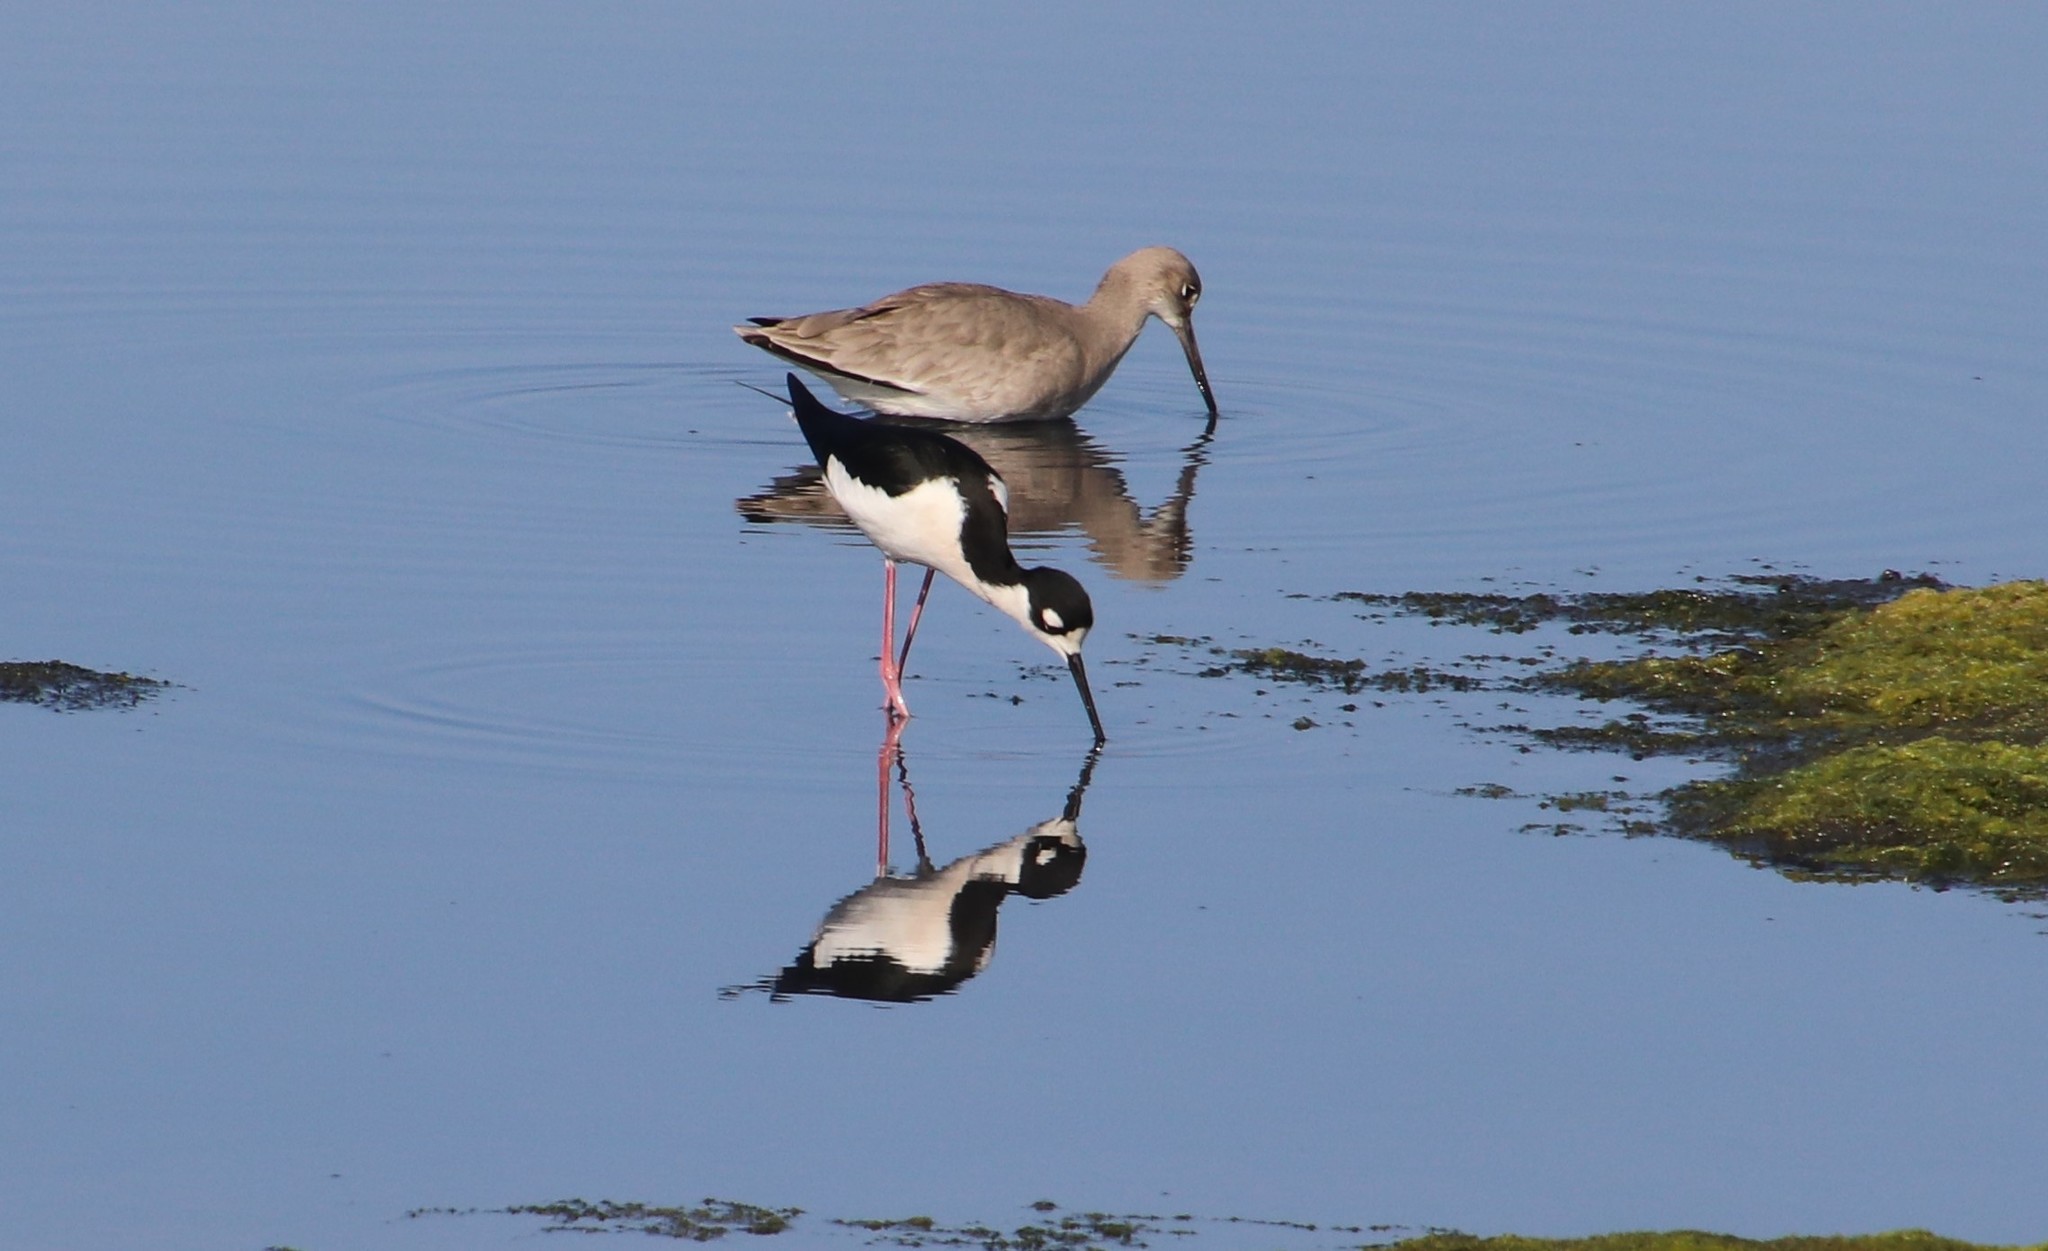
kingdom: Animalia
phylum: Chordata
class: Aves
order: Charadriiformes
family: Recurvirostridae
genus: Himantopus
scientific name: Himantopus mexicanus
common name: Black-necked stilt
